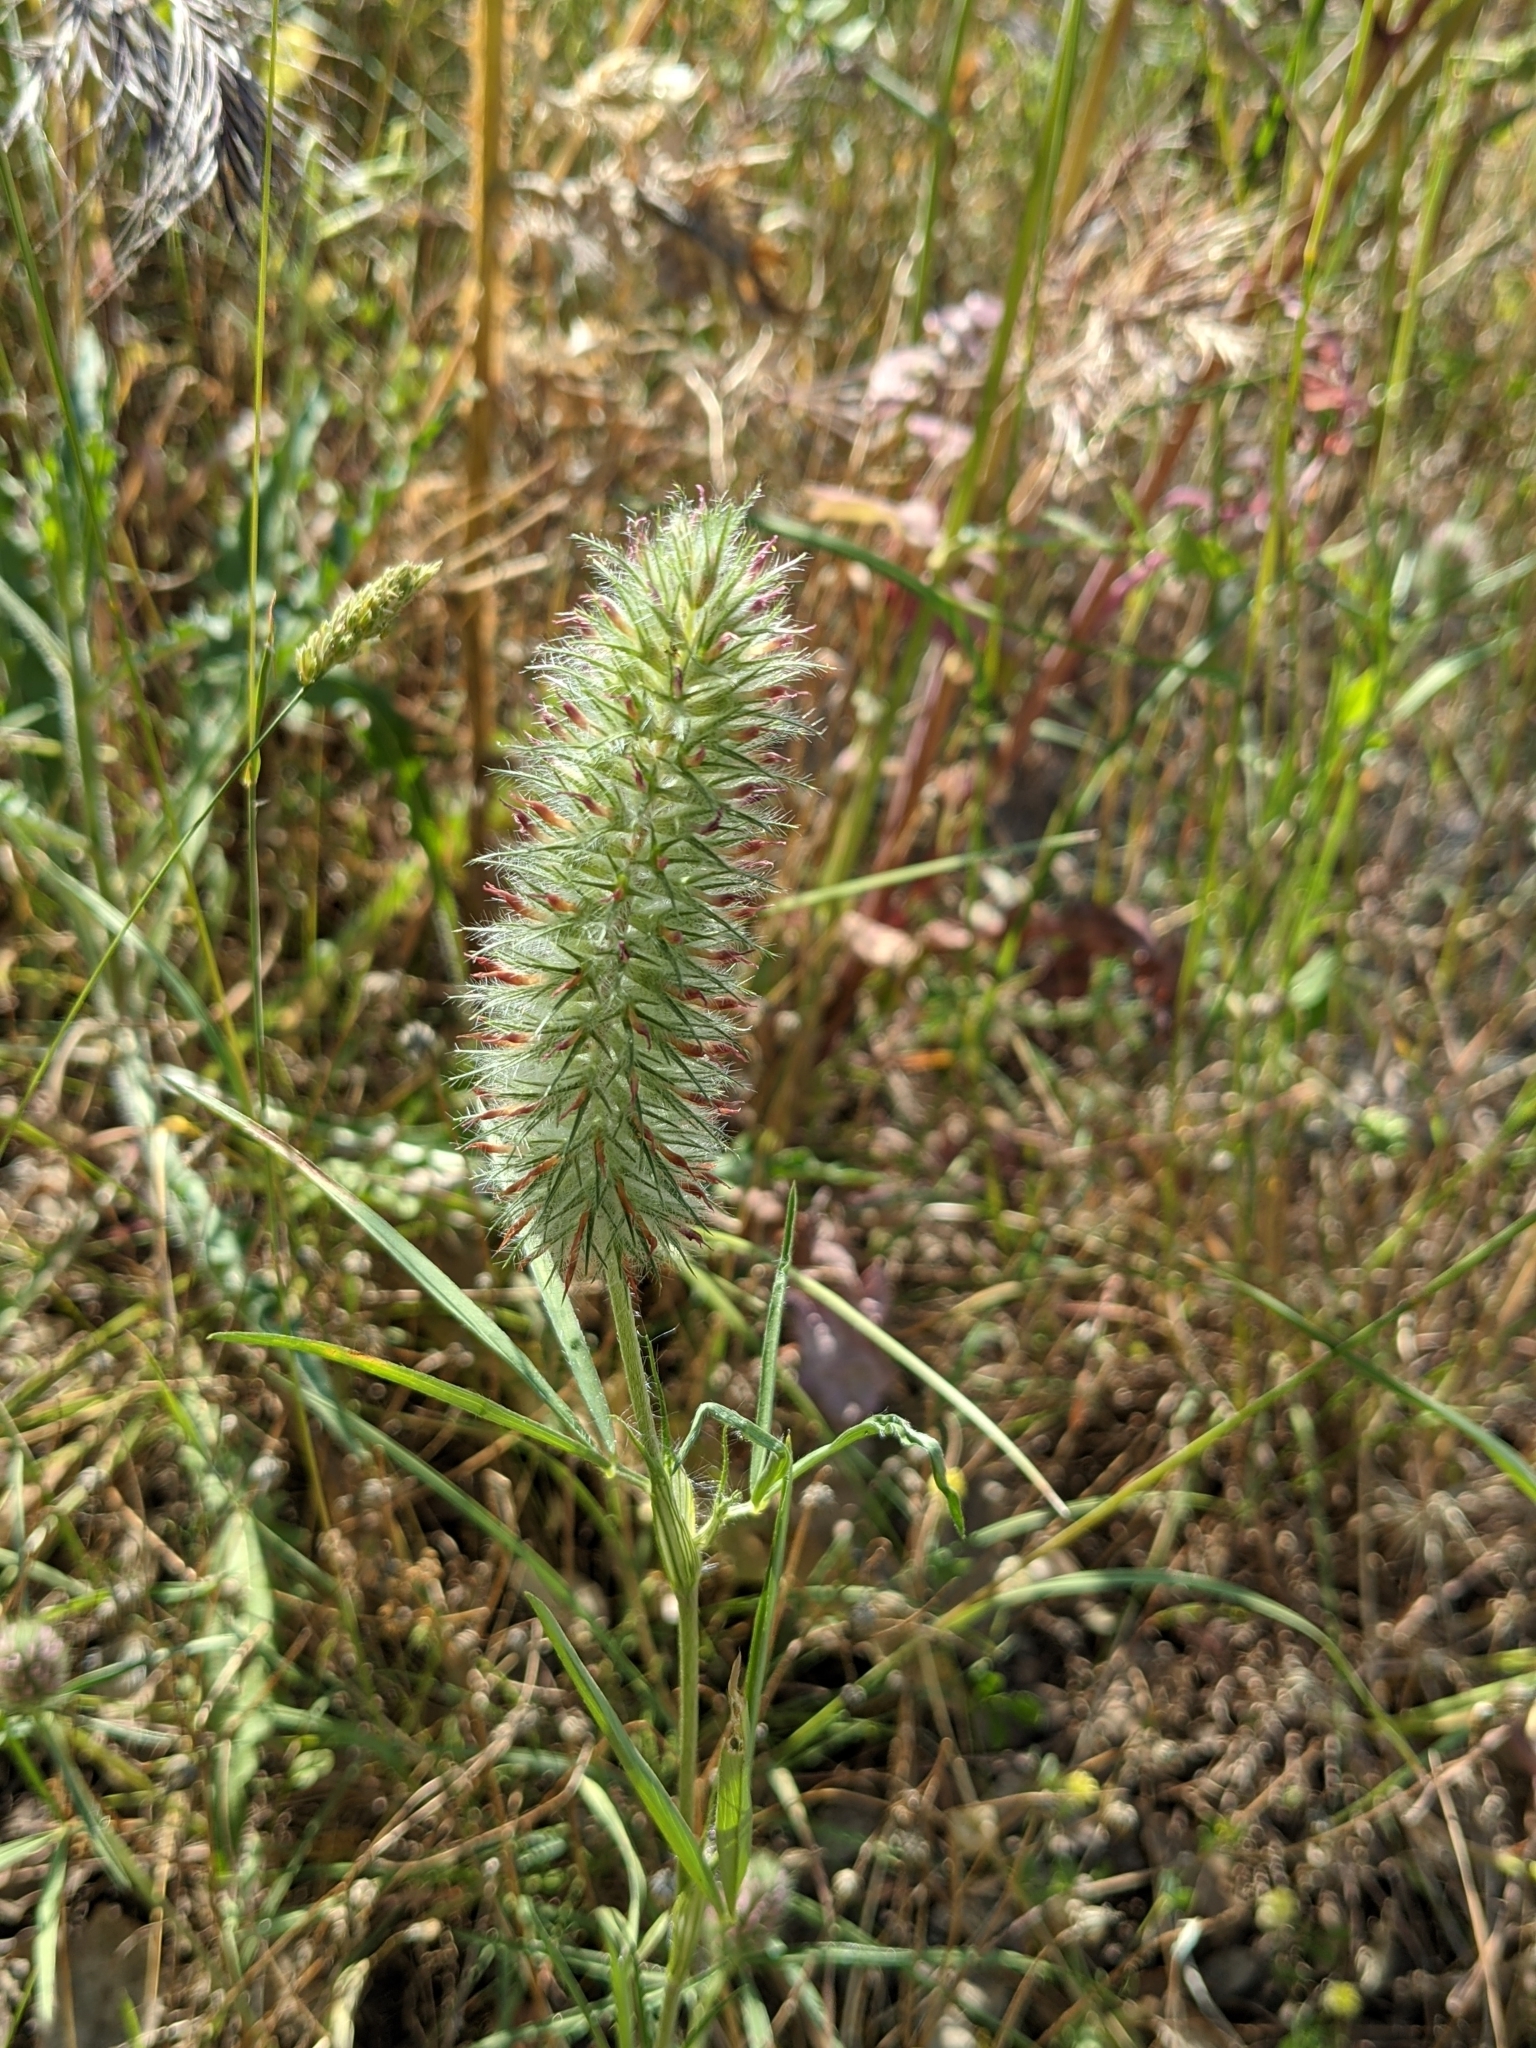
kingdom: Plantae
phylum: Tracheophyta
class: Magnoliopsida
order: Fabales
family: Fabaceae
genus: Trifolium
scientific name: Trifolium angustifolium
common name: Narrow clover
